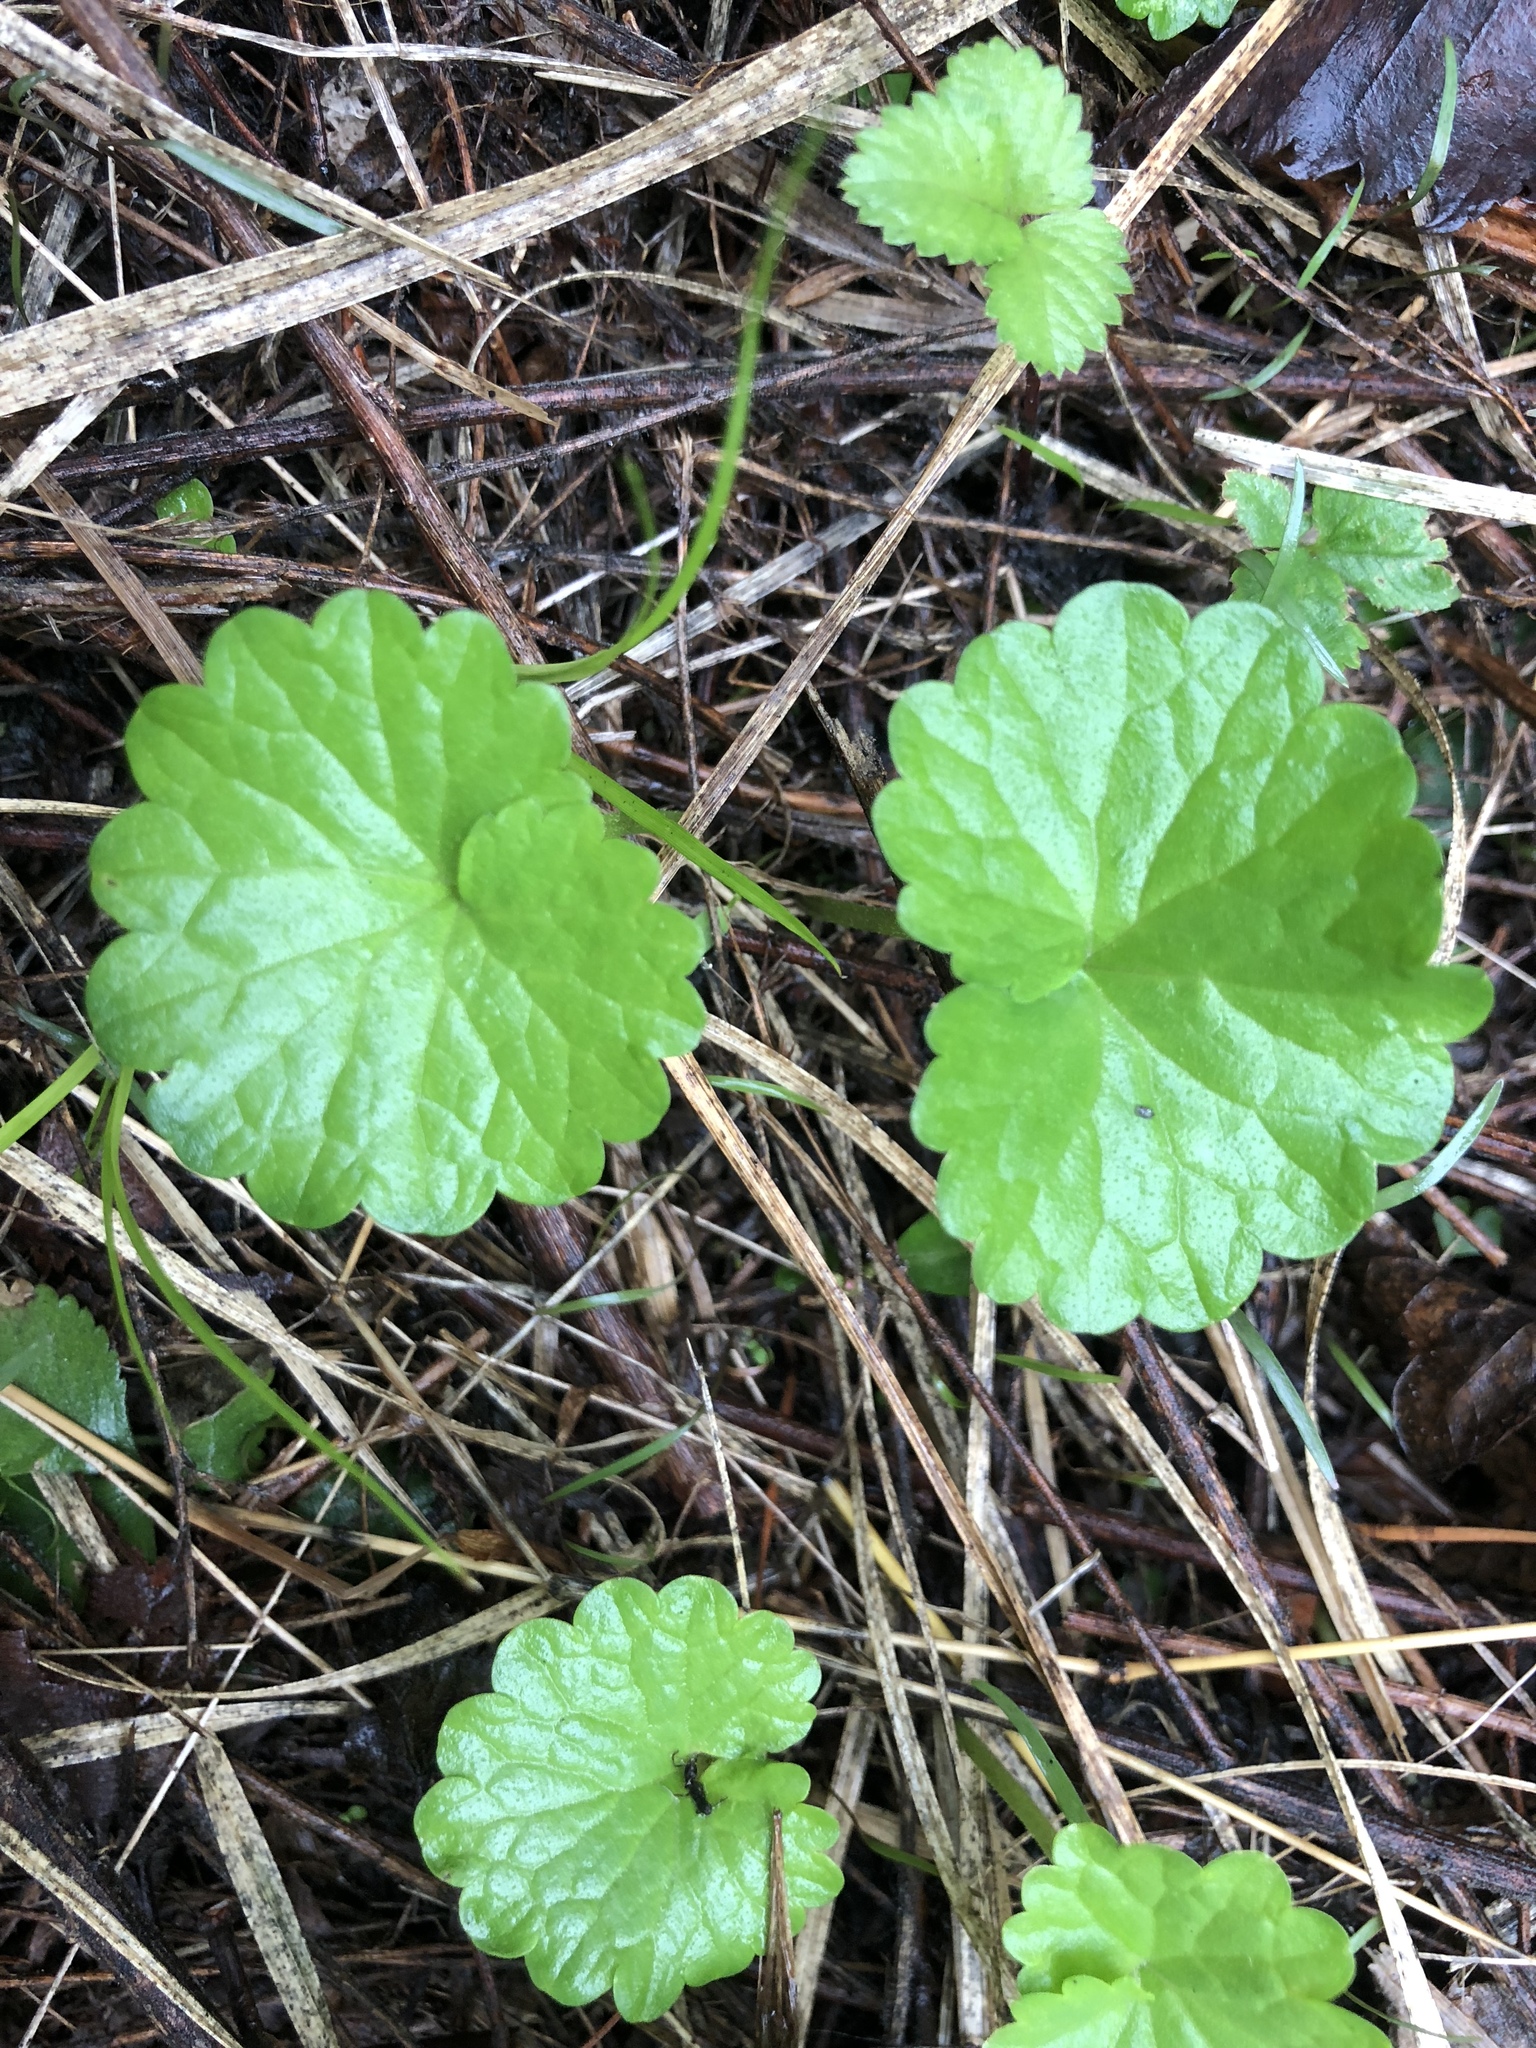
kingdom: Plantae
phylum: Tracheophyta
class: Magnoliopsida
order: Lamiales
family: Lamiaceae
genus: Glechoma
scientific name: Glechoma hederacea
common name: Ground ivy
